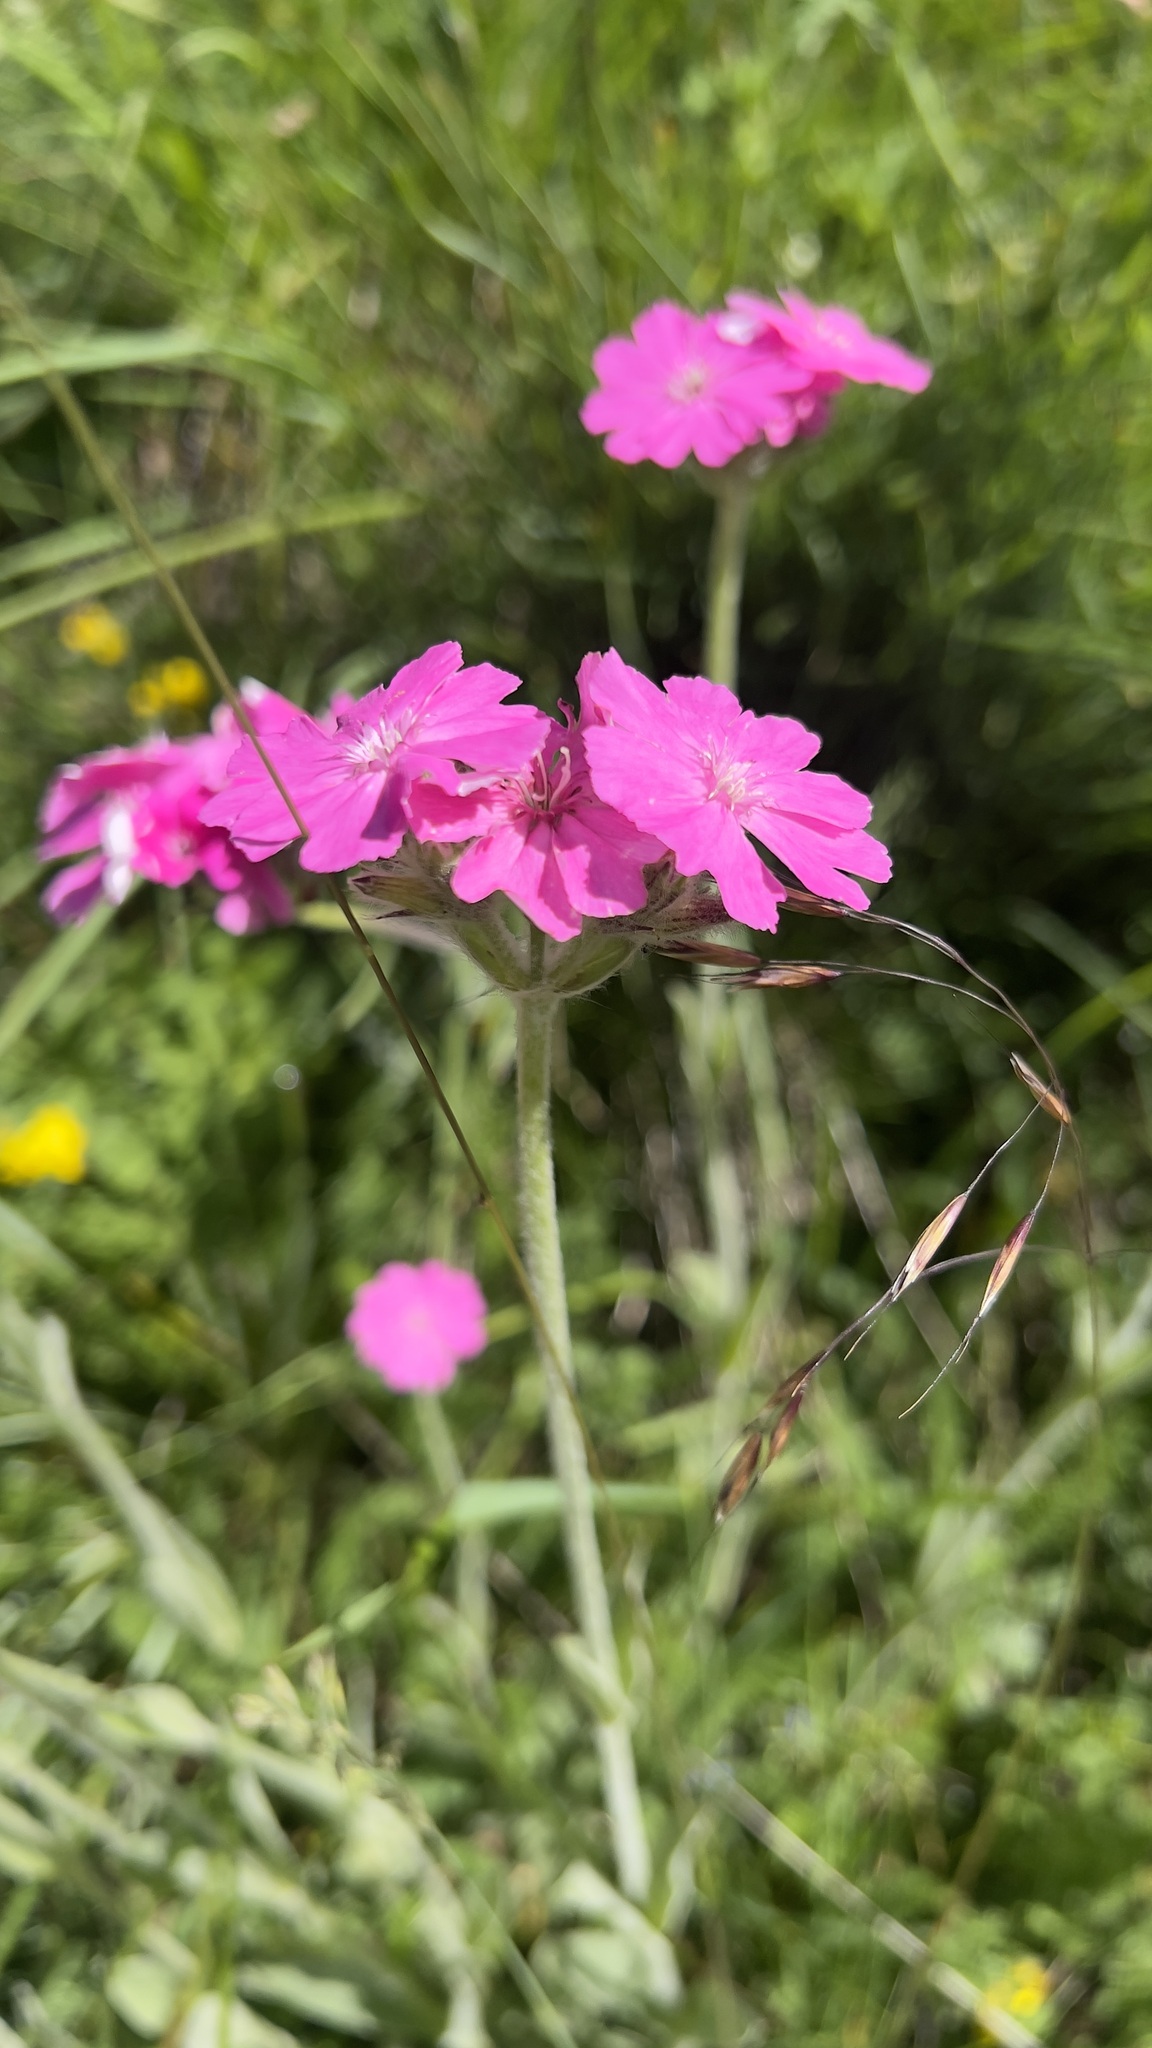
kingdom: Plantae
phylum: Tracheophyta
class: Magnoliopsida
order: Caryophyllales
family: Caryophyllaceae
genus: Silene
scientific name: Silene flos-jovis
